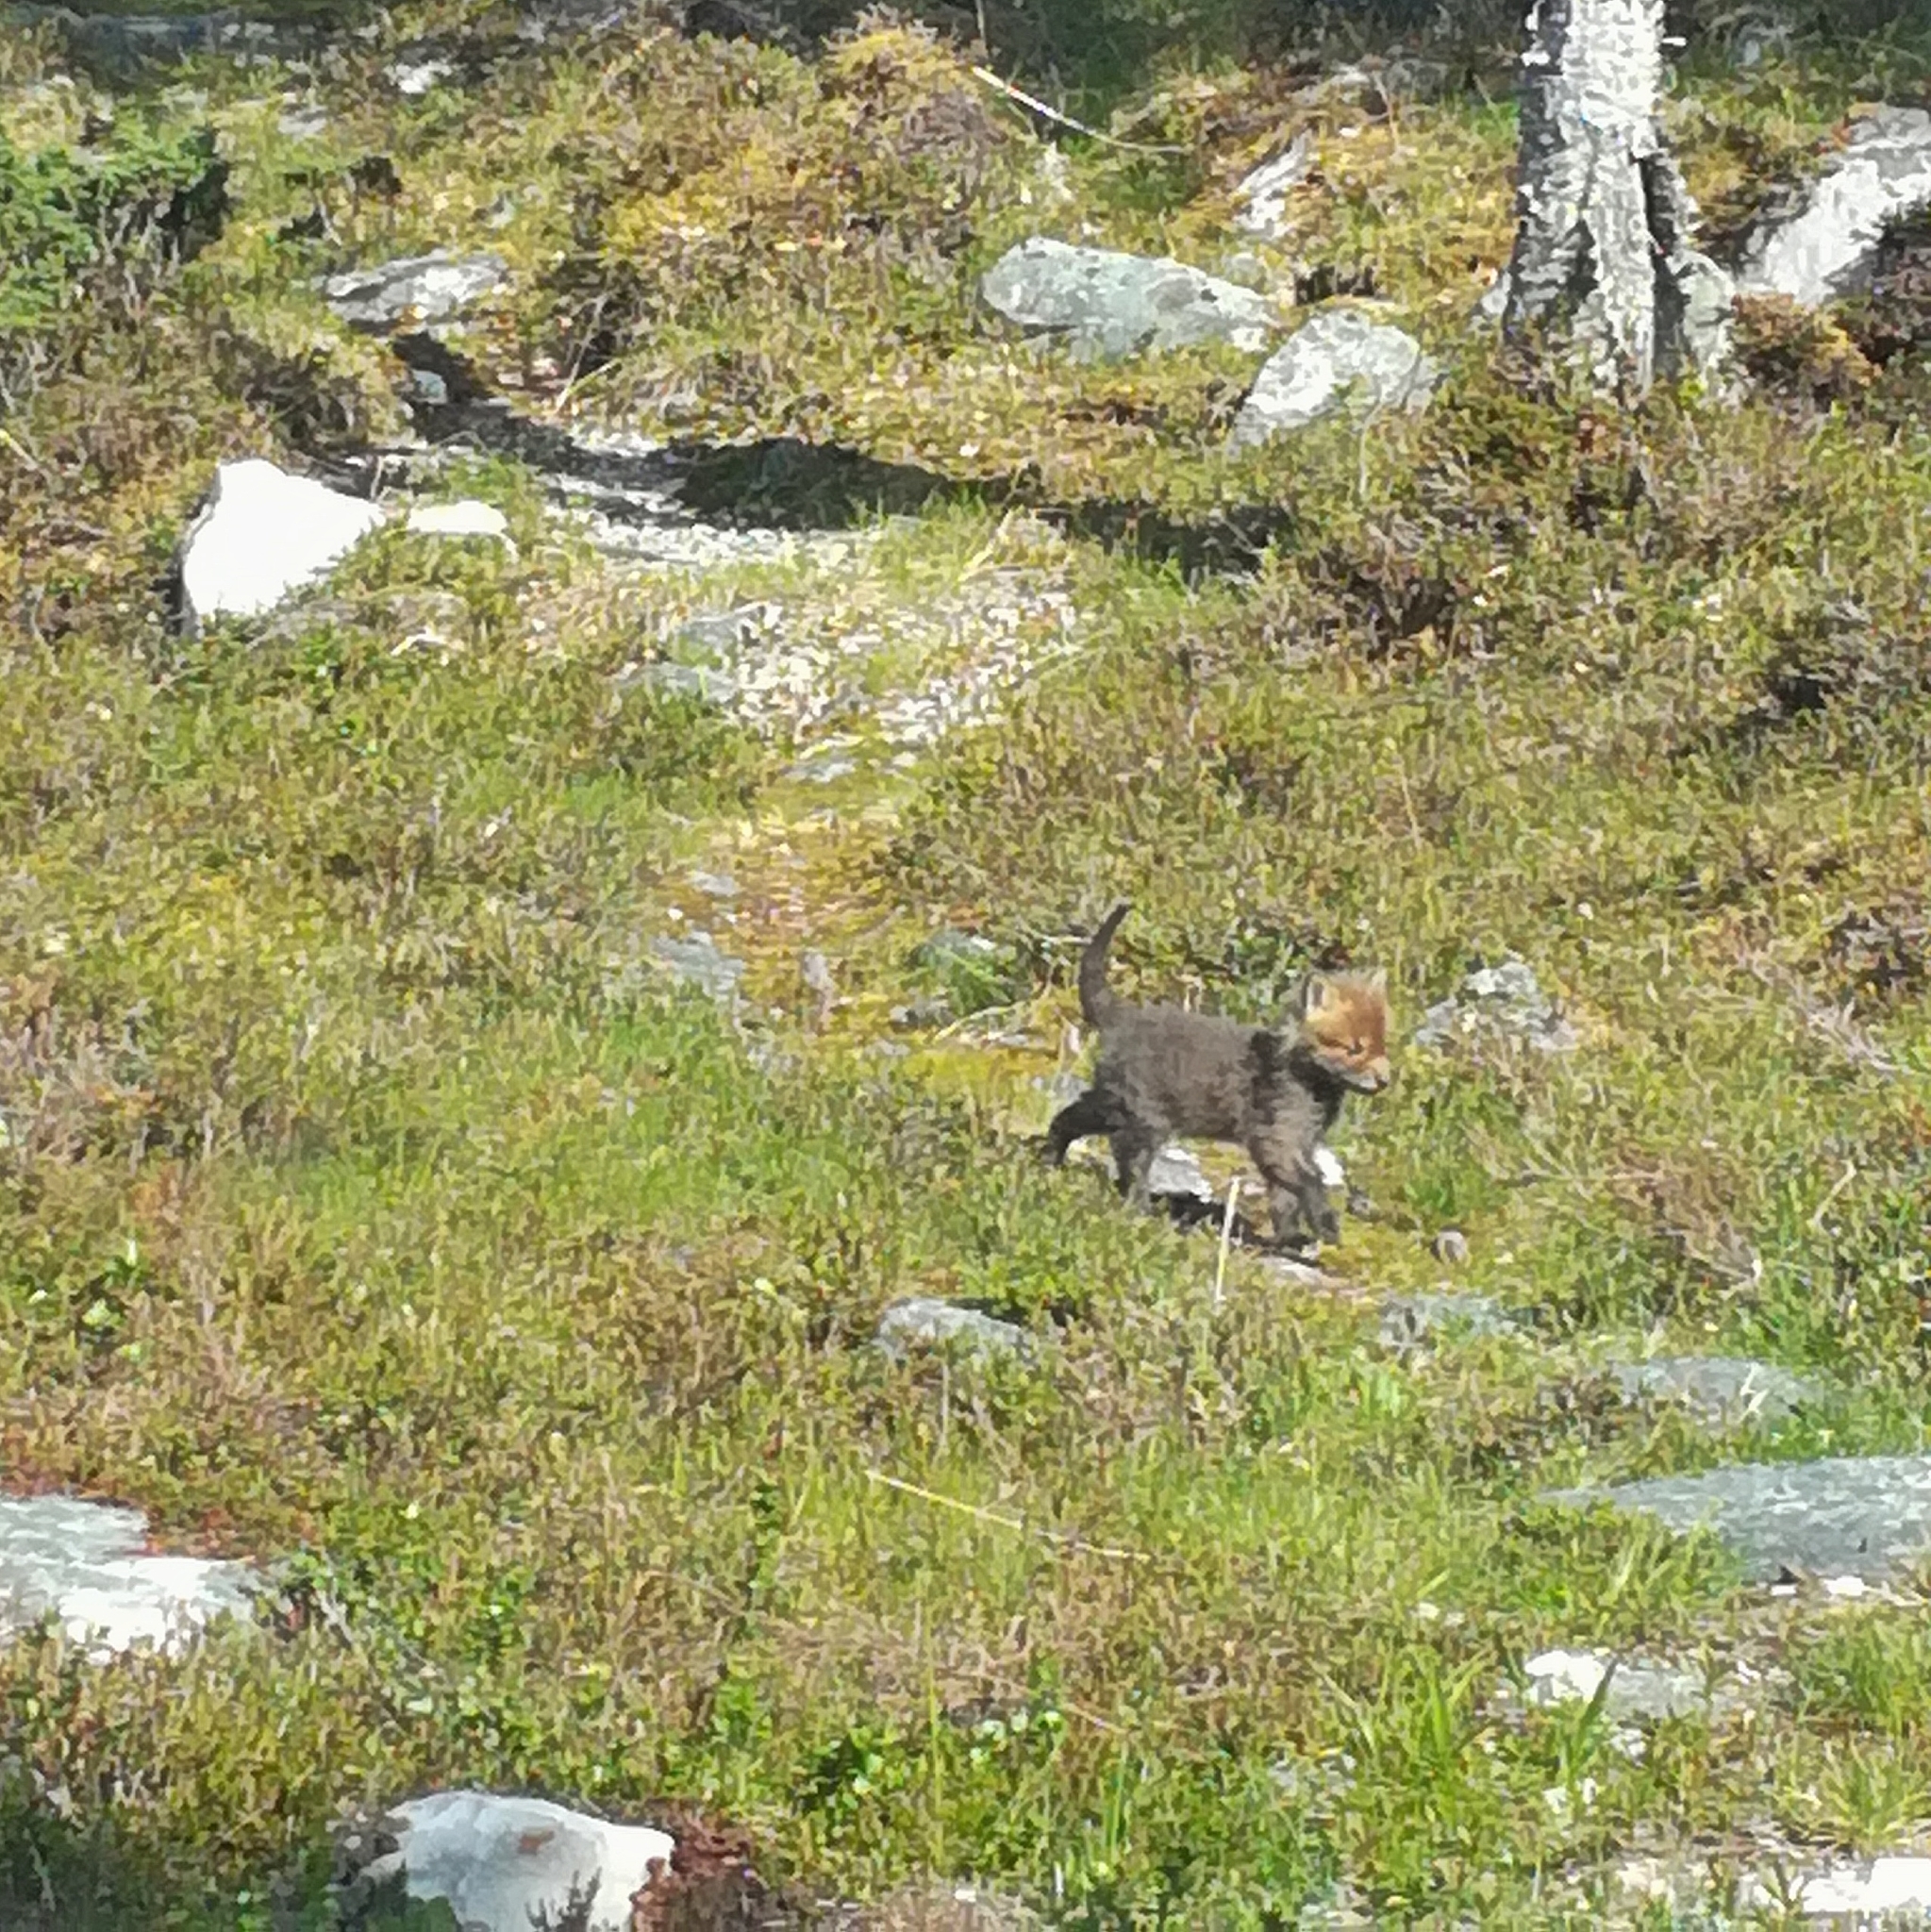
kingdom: Animalia
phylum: Chordata
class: Mammalia
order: Carnivora
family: Canidae
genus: Vulpes
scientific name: Vulpes vulpes
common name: Red fox
